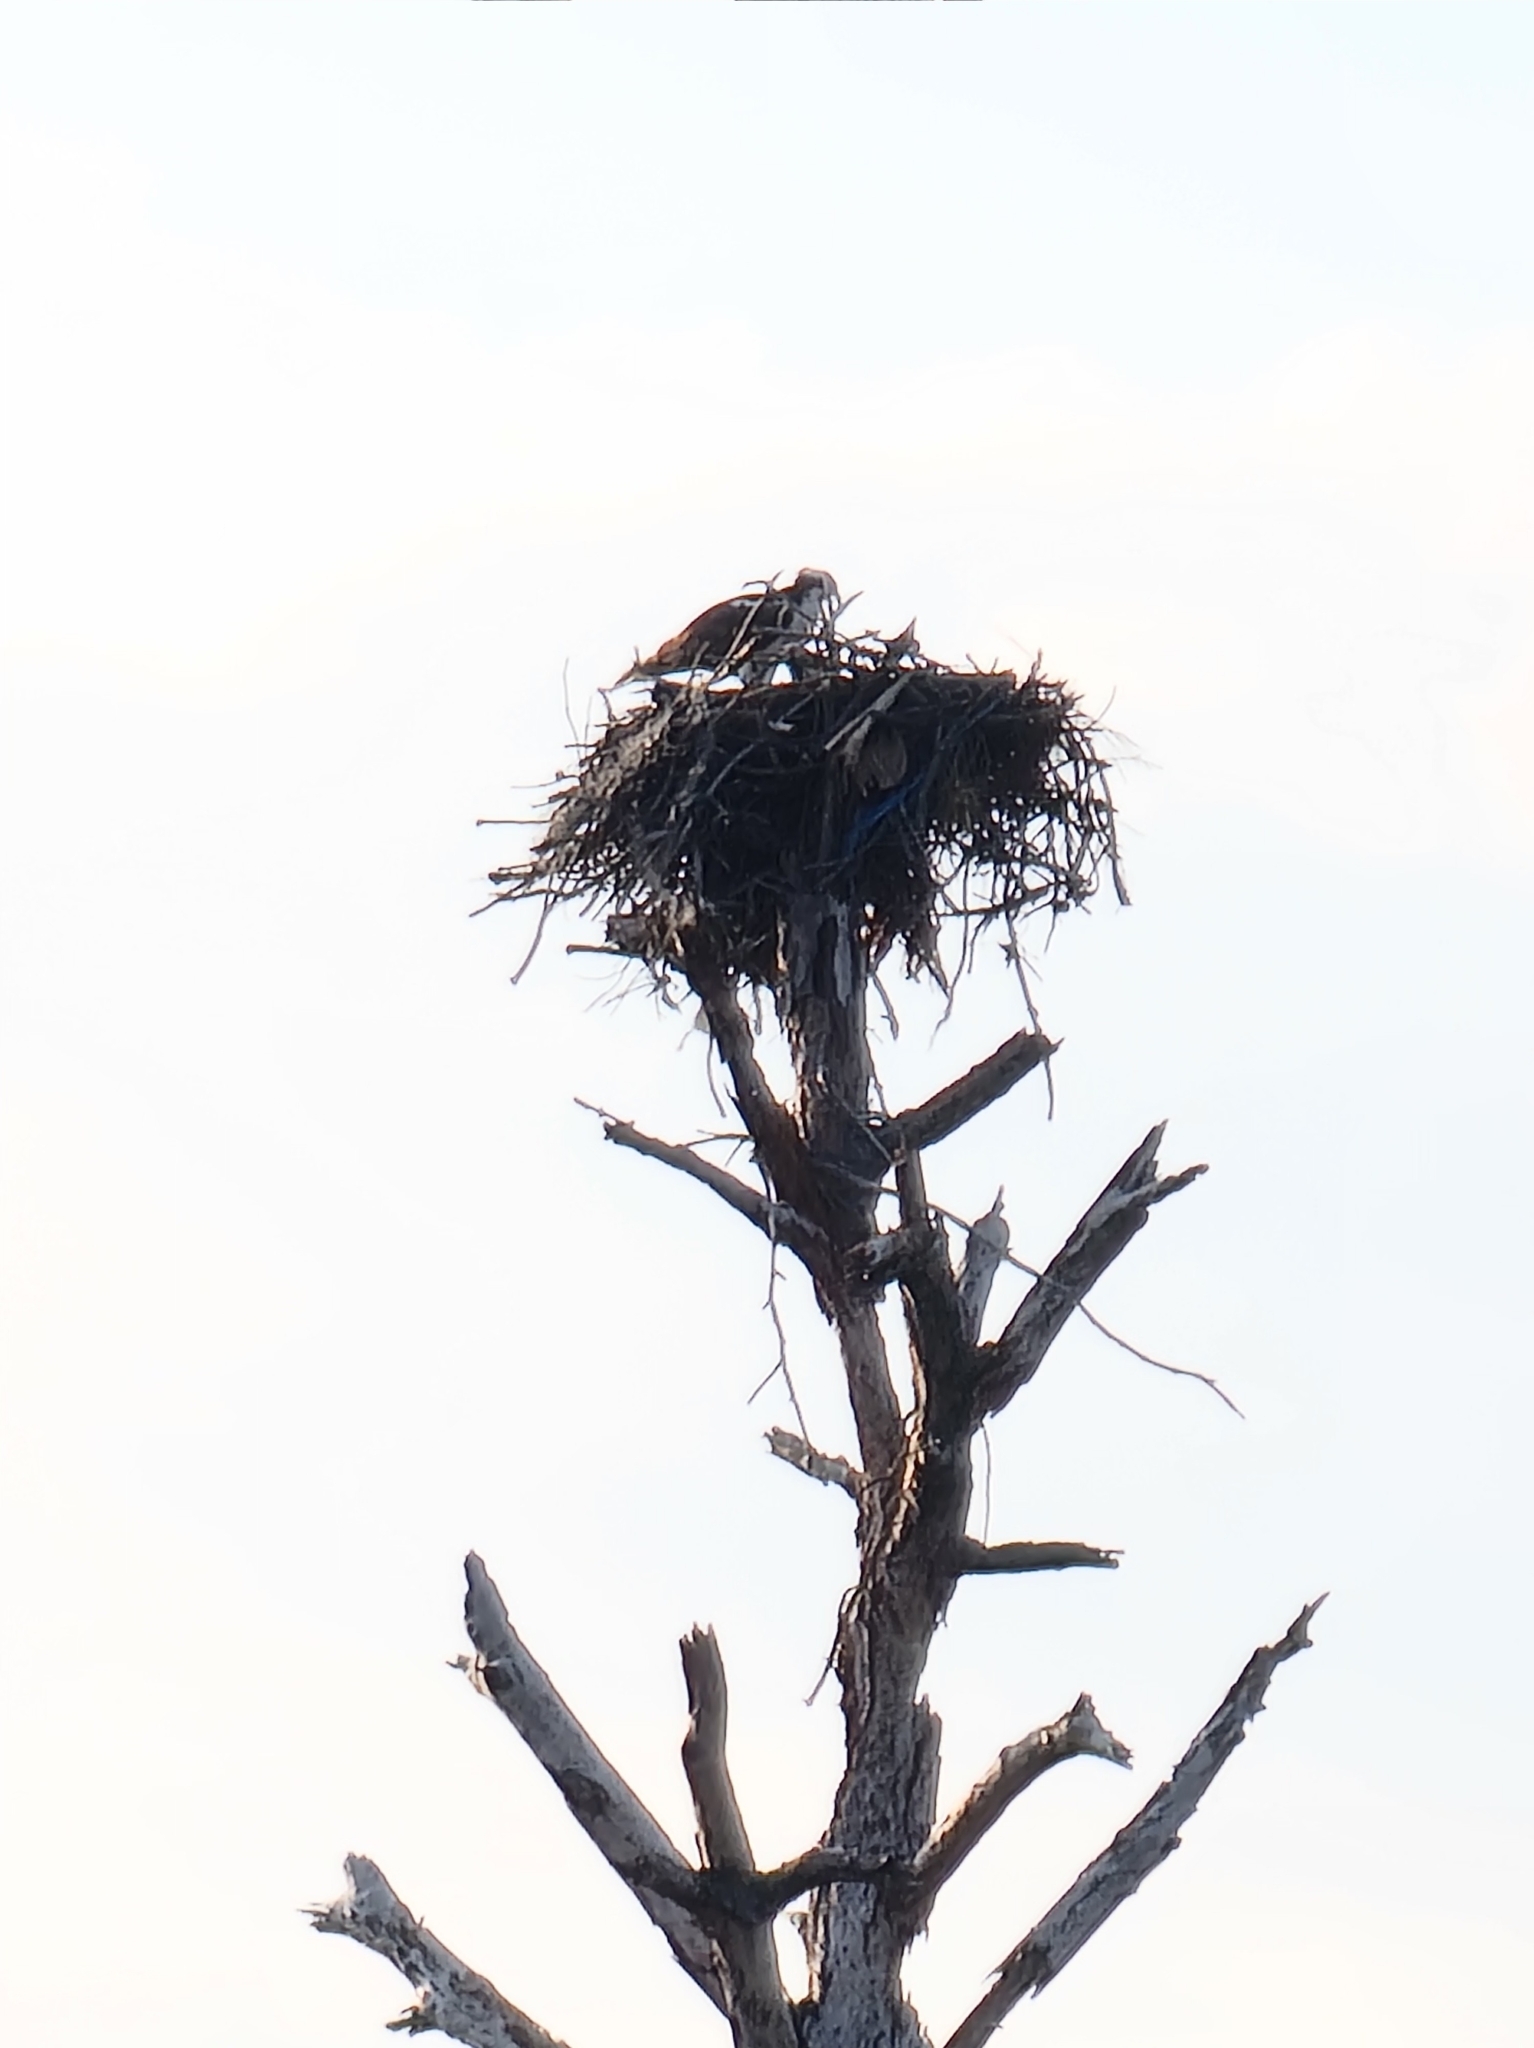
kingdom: Animalia
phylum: Chordata
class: Aves
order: Accipitriformes
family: Pandionidae
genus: Pandion
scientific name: Pandion haliaetus
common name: Osprey
